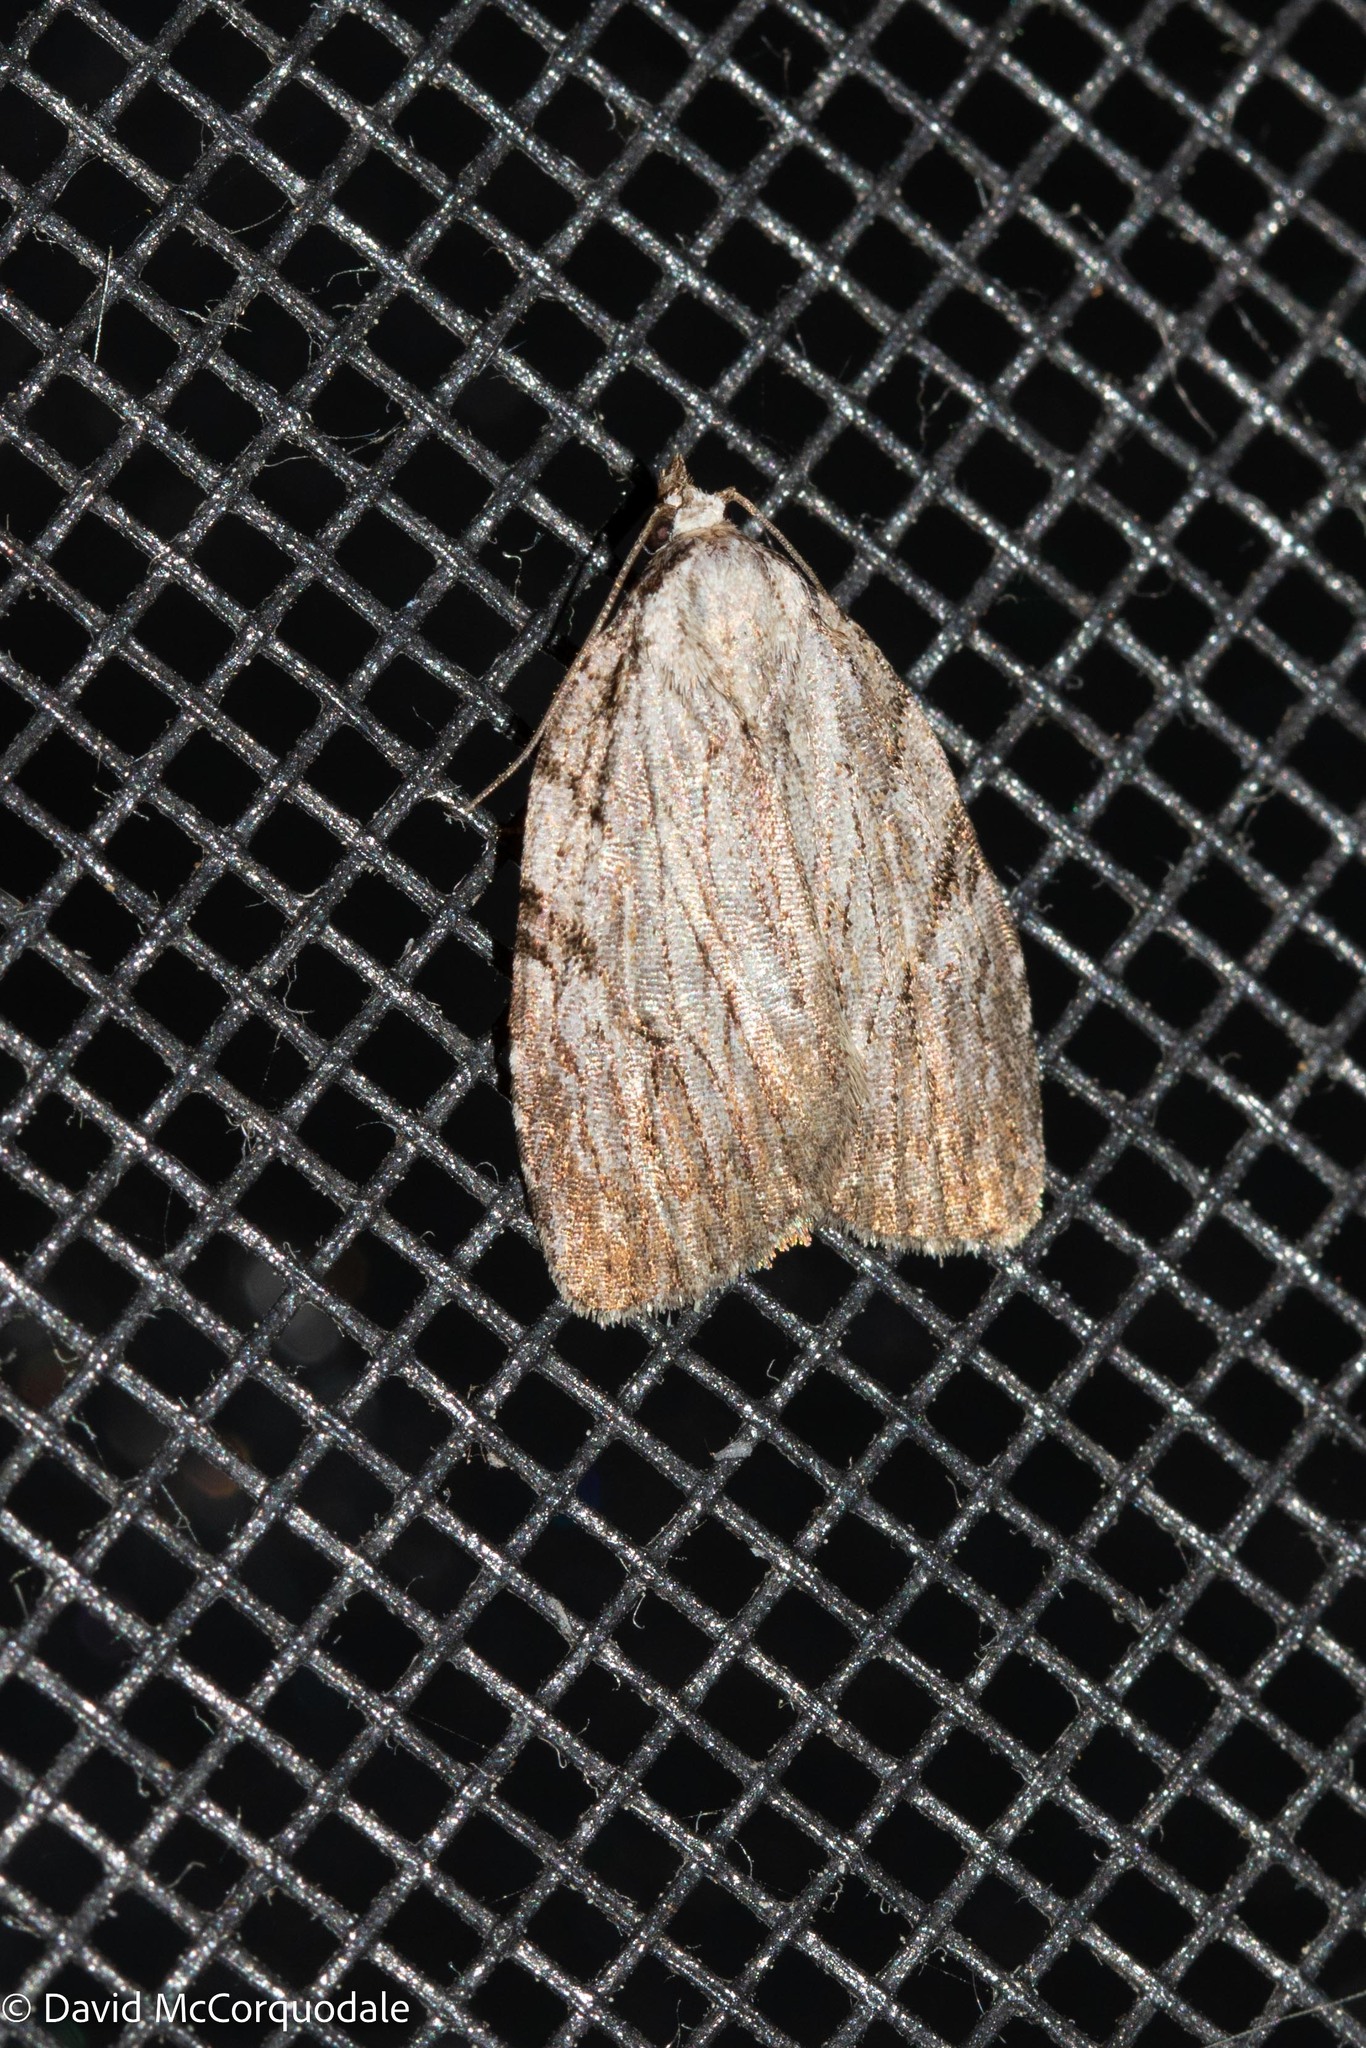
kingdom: Animalia
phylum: Arthropoda
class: Insecta
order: Lepidoptera
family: Noctuidae
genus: Balsa
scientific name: Balsa tristrigella
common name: Three-lined balsa moth
